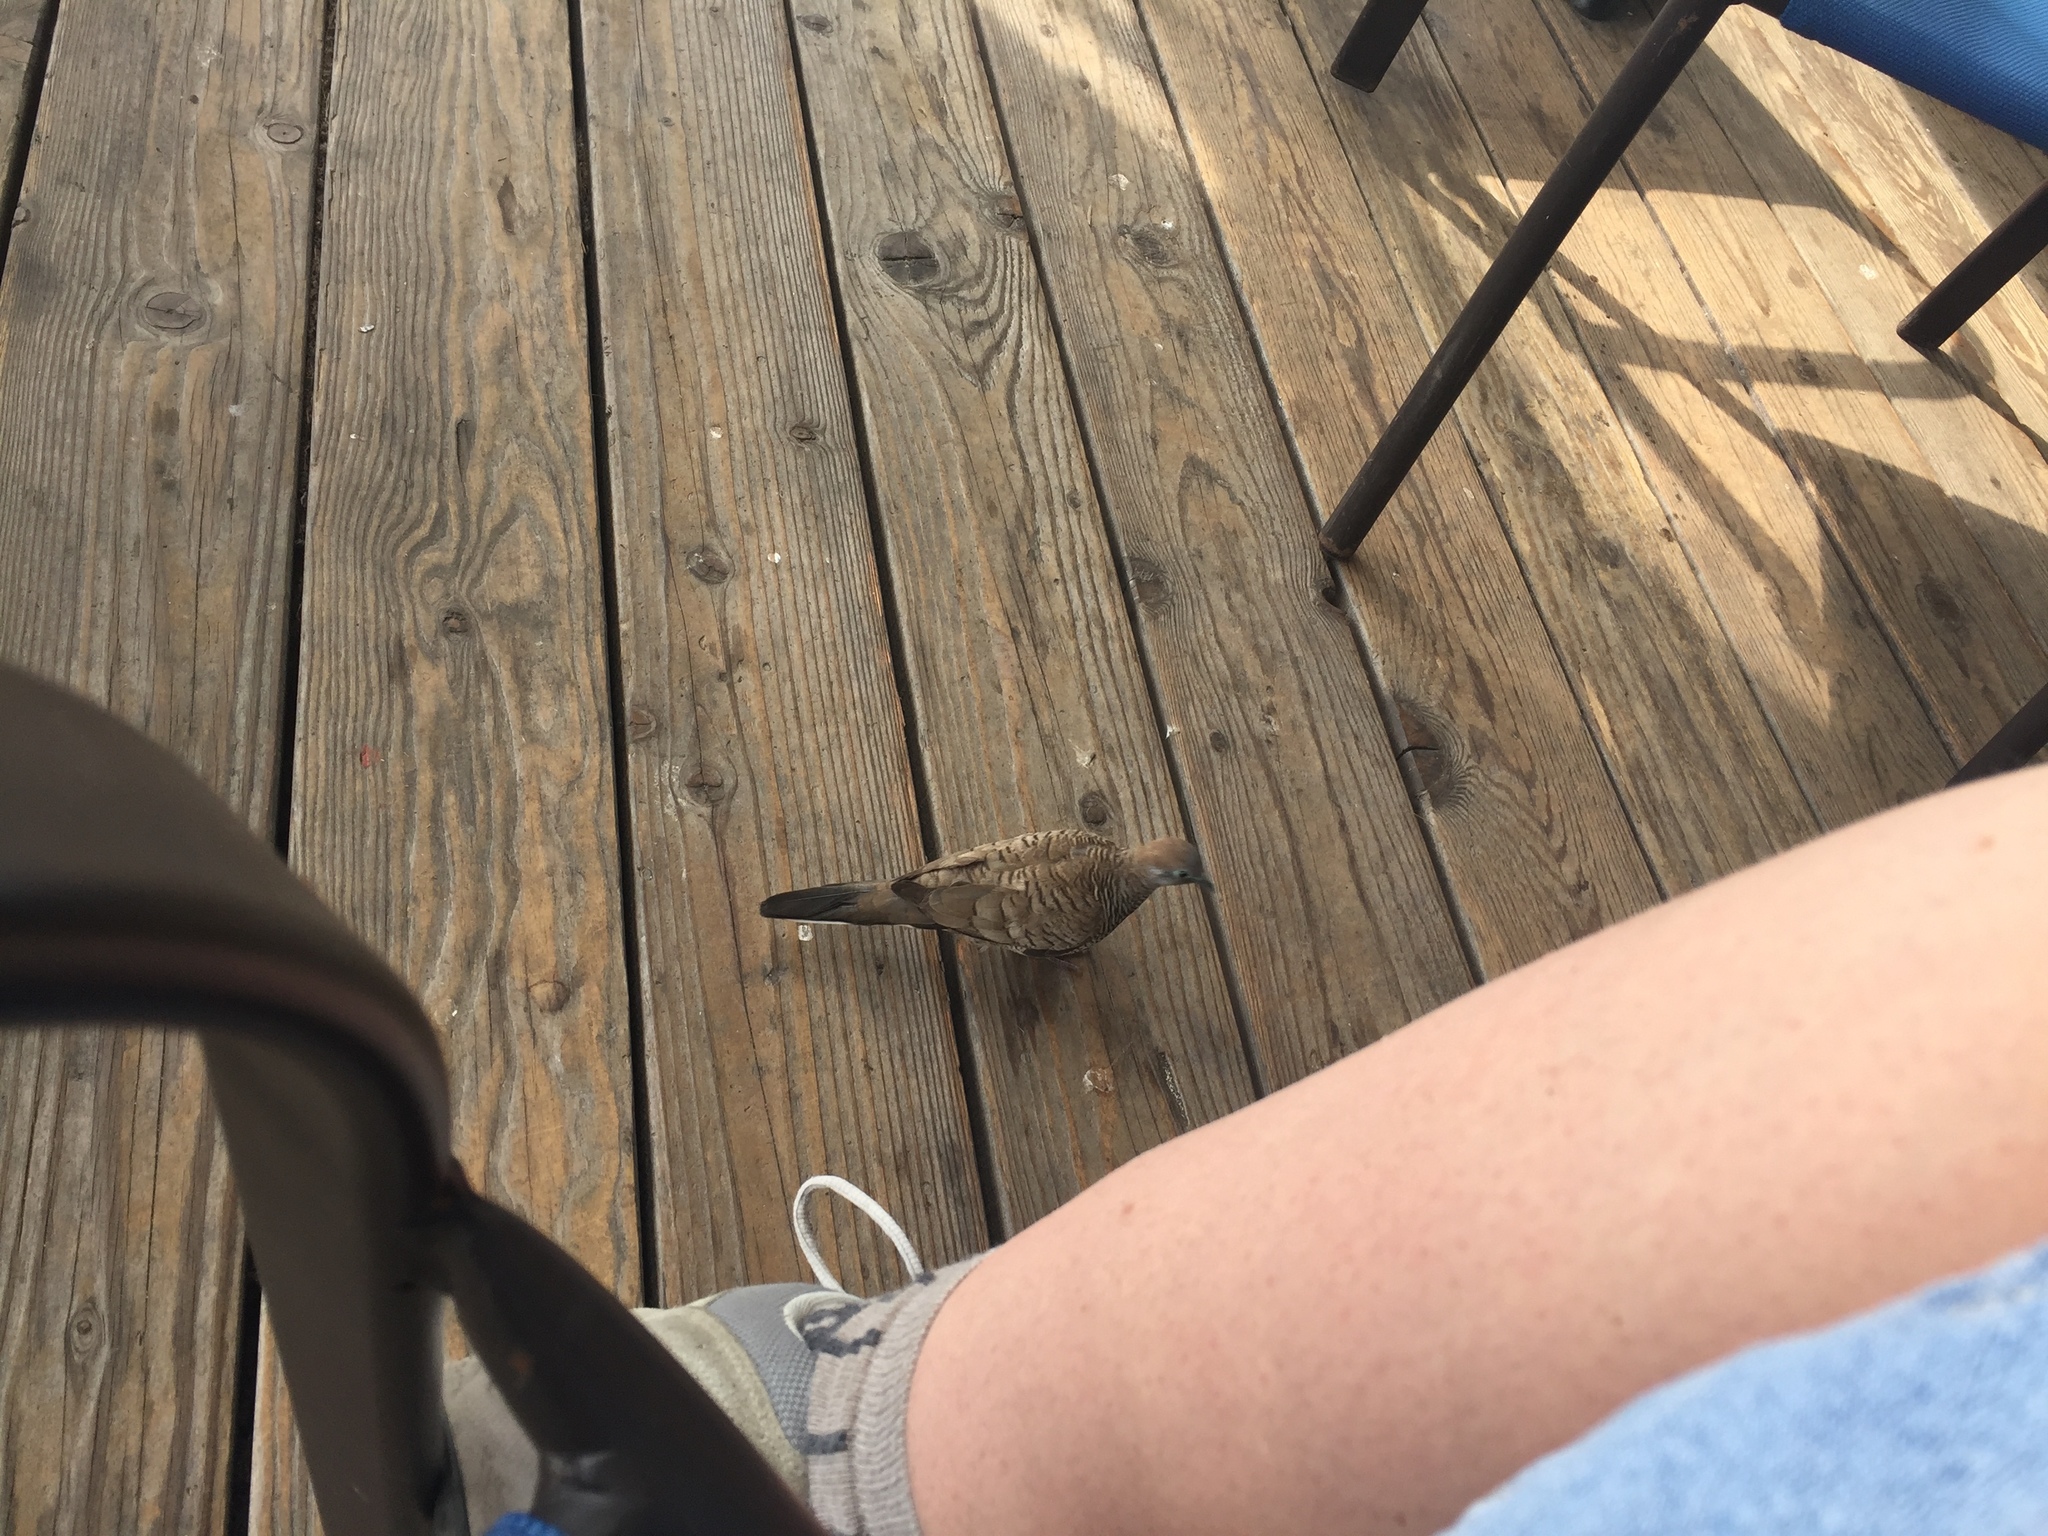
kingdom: Animalia
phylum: Chordata
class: Aves
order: Columbiformes
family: Columbidae
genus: Geopelia
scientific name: Geopelia striata
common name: Zebra dove
